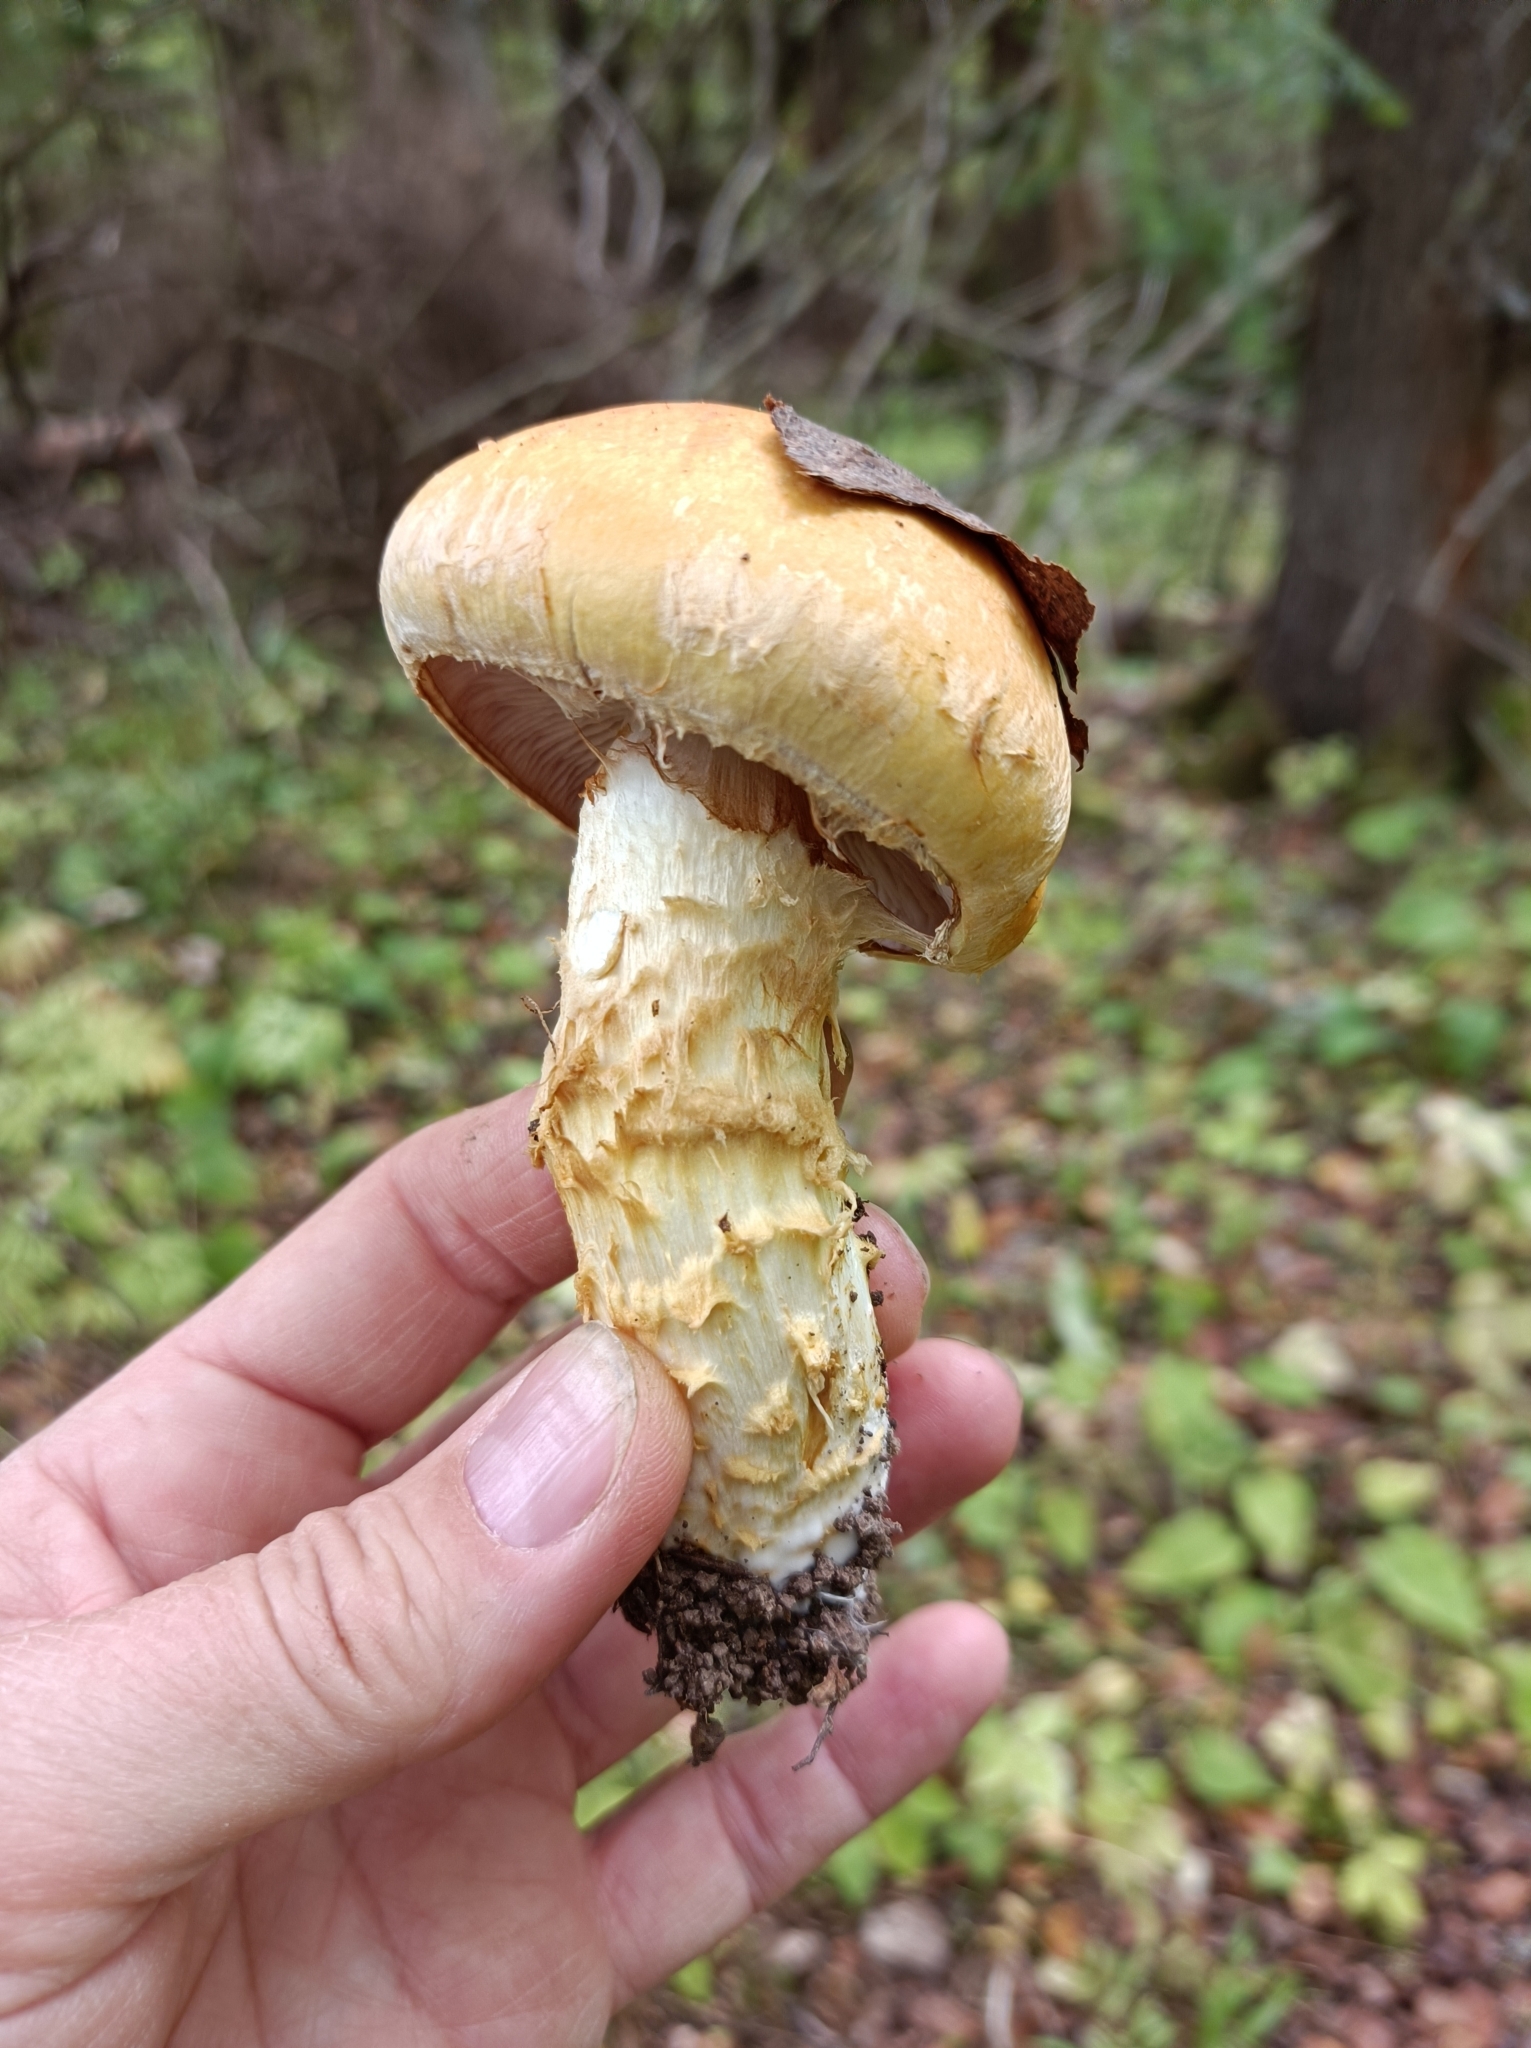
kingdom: Fungi
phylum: Basidiomycota
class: Agaricomycetes
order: Agaricales
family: Cortinariaceae
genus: Phlegmacium
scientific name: Phlegmacium triumphans
